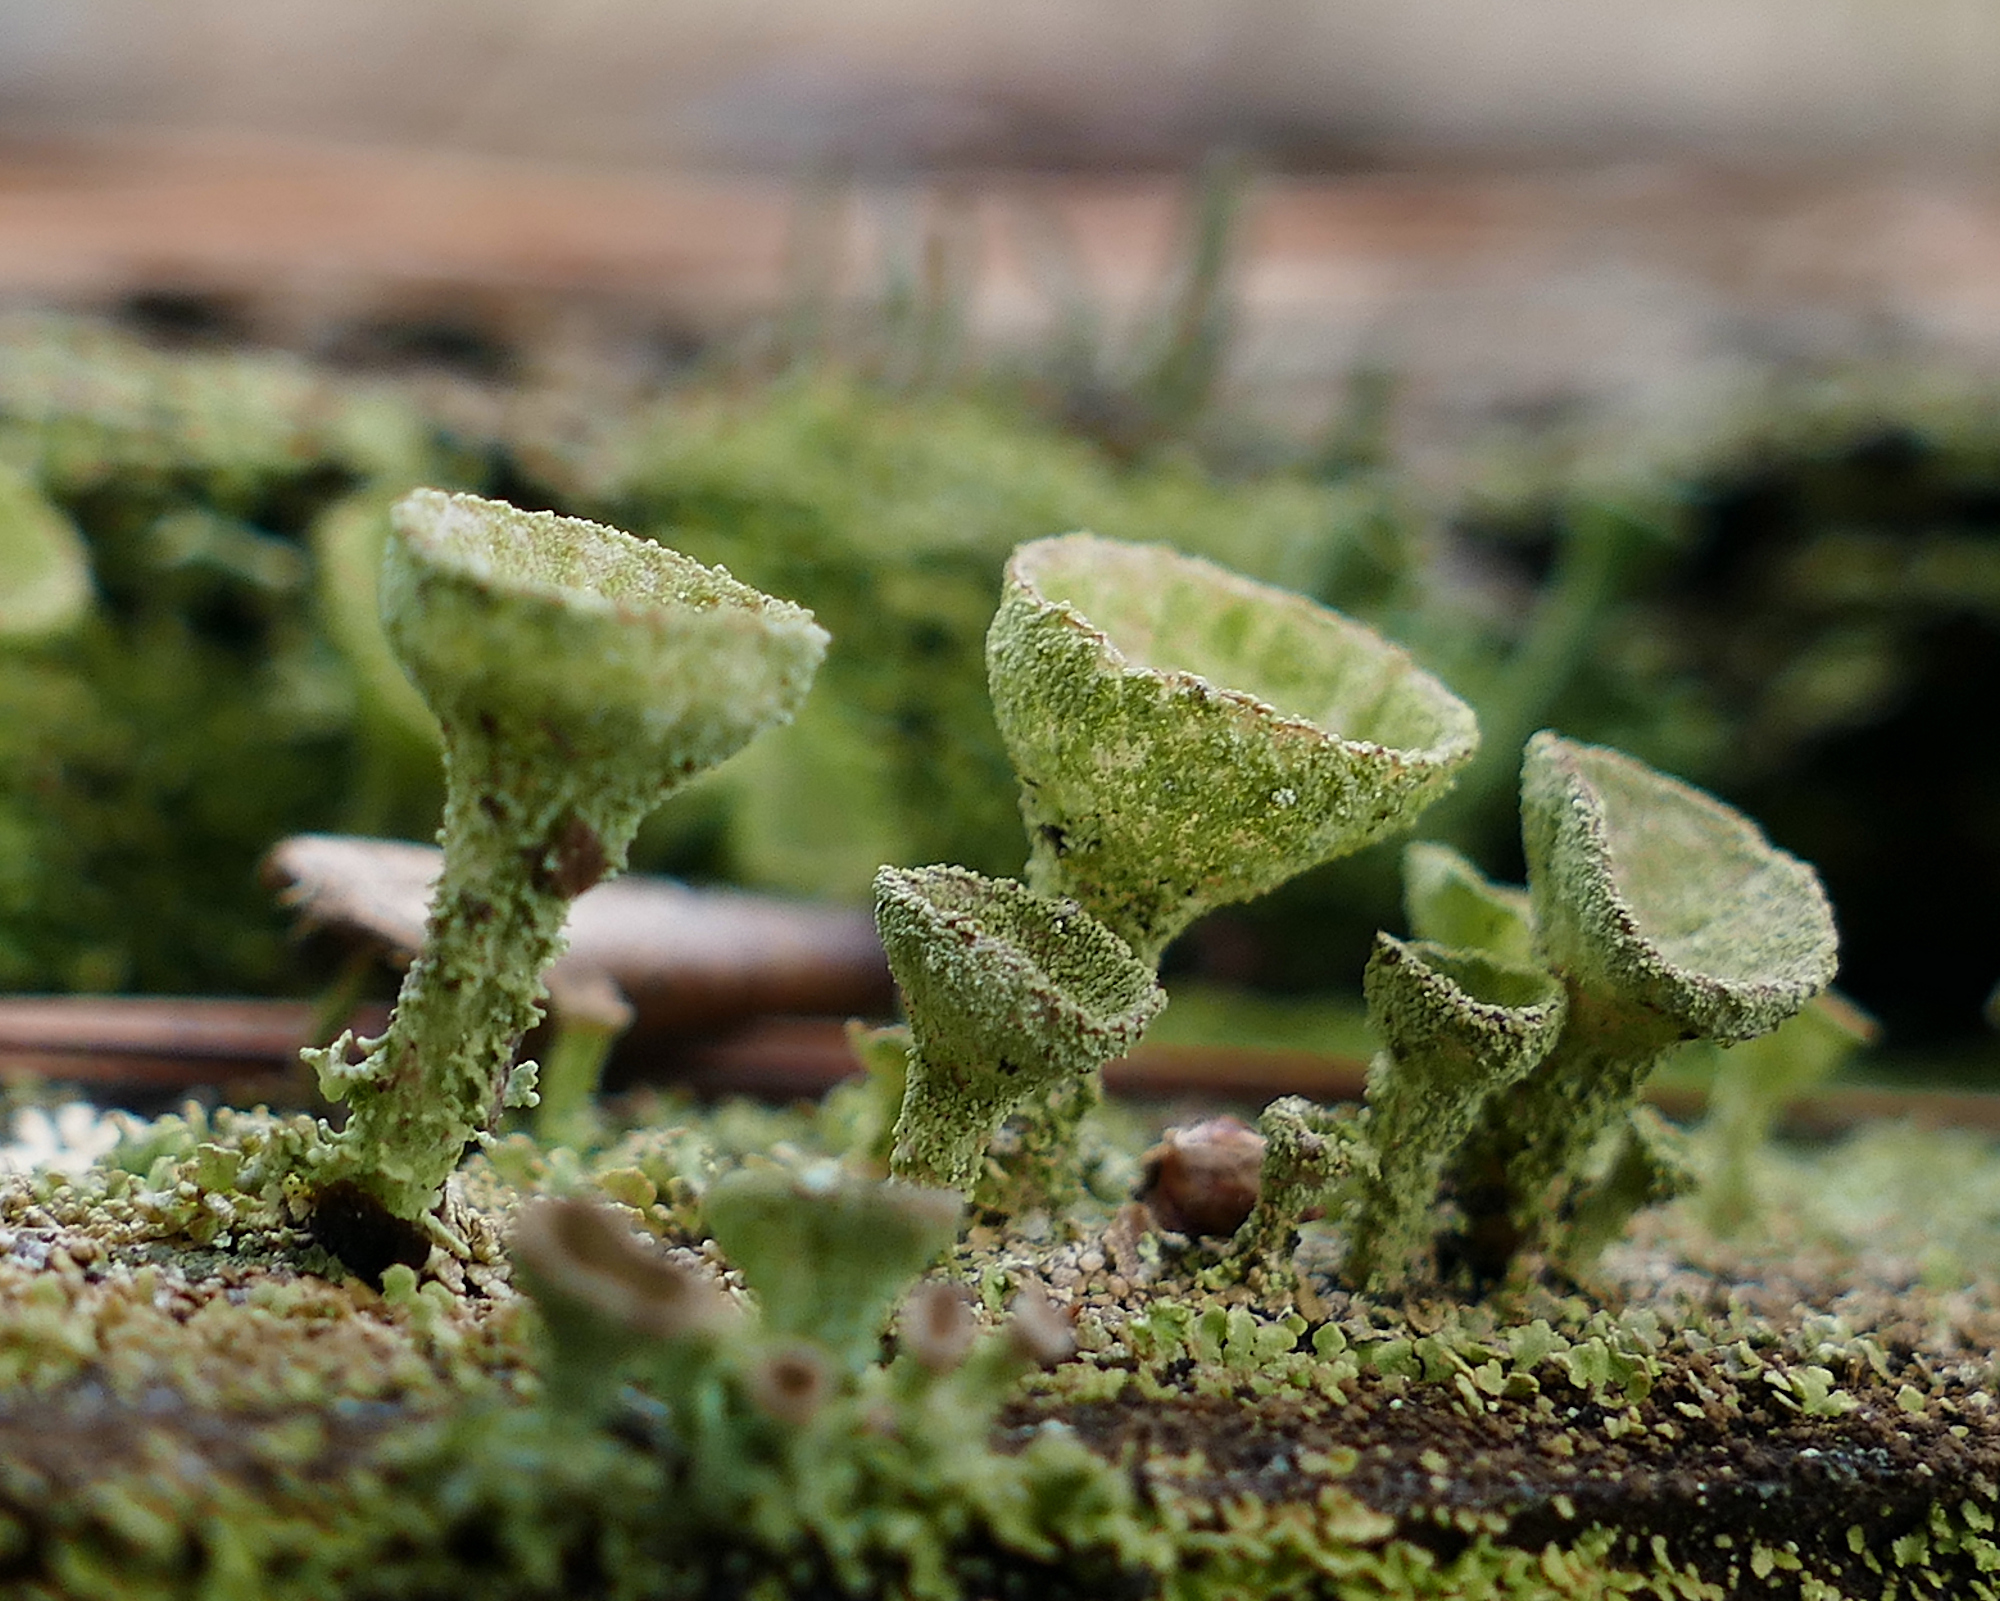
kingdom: Fungi
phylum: Ascomycota
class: Lecanoromycetes
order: Lecanorales
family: Cladoniaceae
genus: Cladonia
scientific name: Cladonia chlorophaea
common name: Mealy pixie cup
